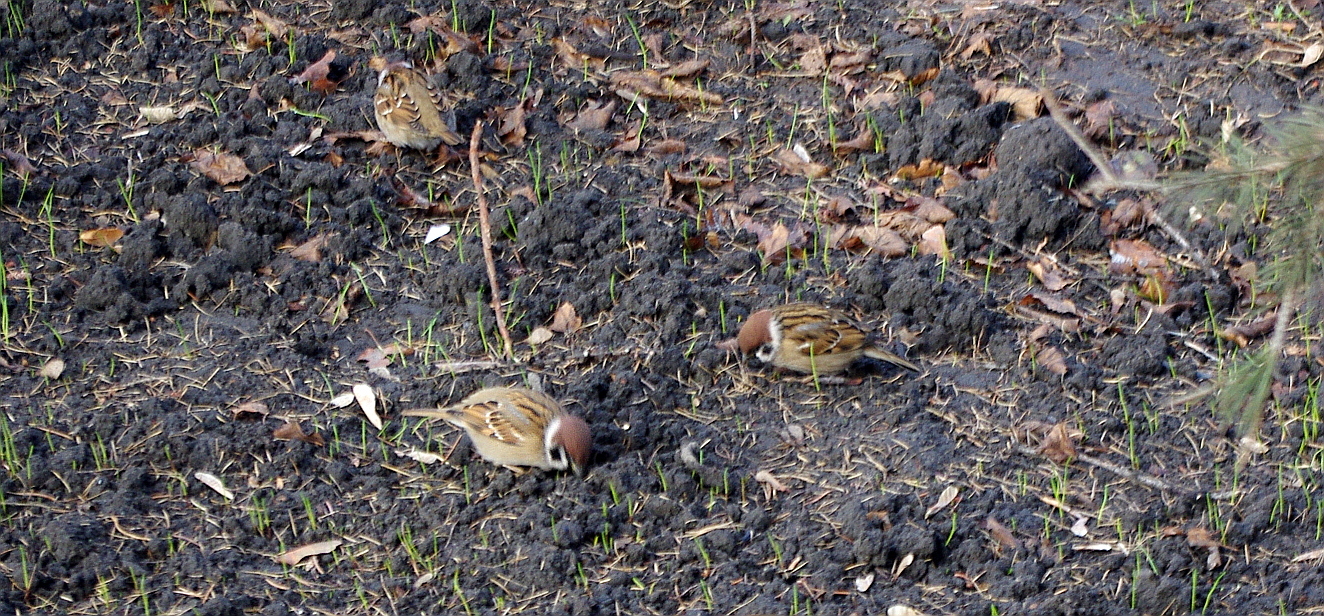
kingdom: Animalia
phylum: Chordata
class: Aves
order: Passeriformes
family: Passeridae
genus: Passer
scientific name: Passer montanus
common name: Eurasian tree sparrow
